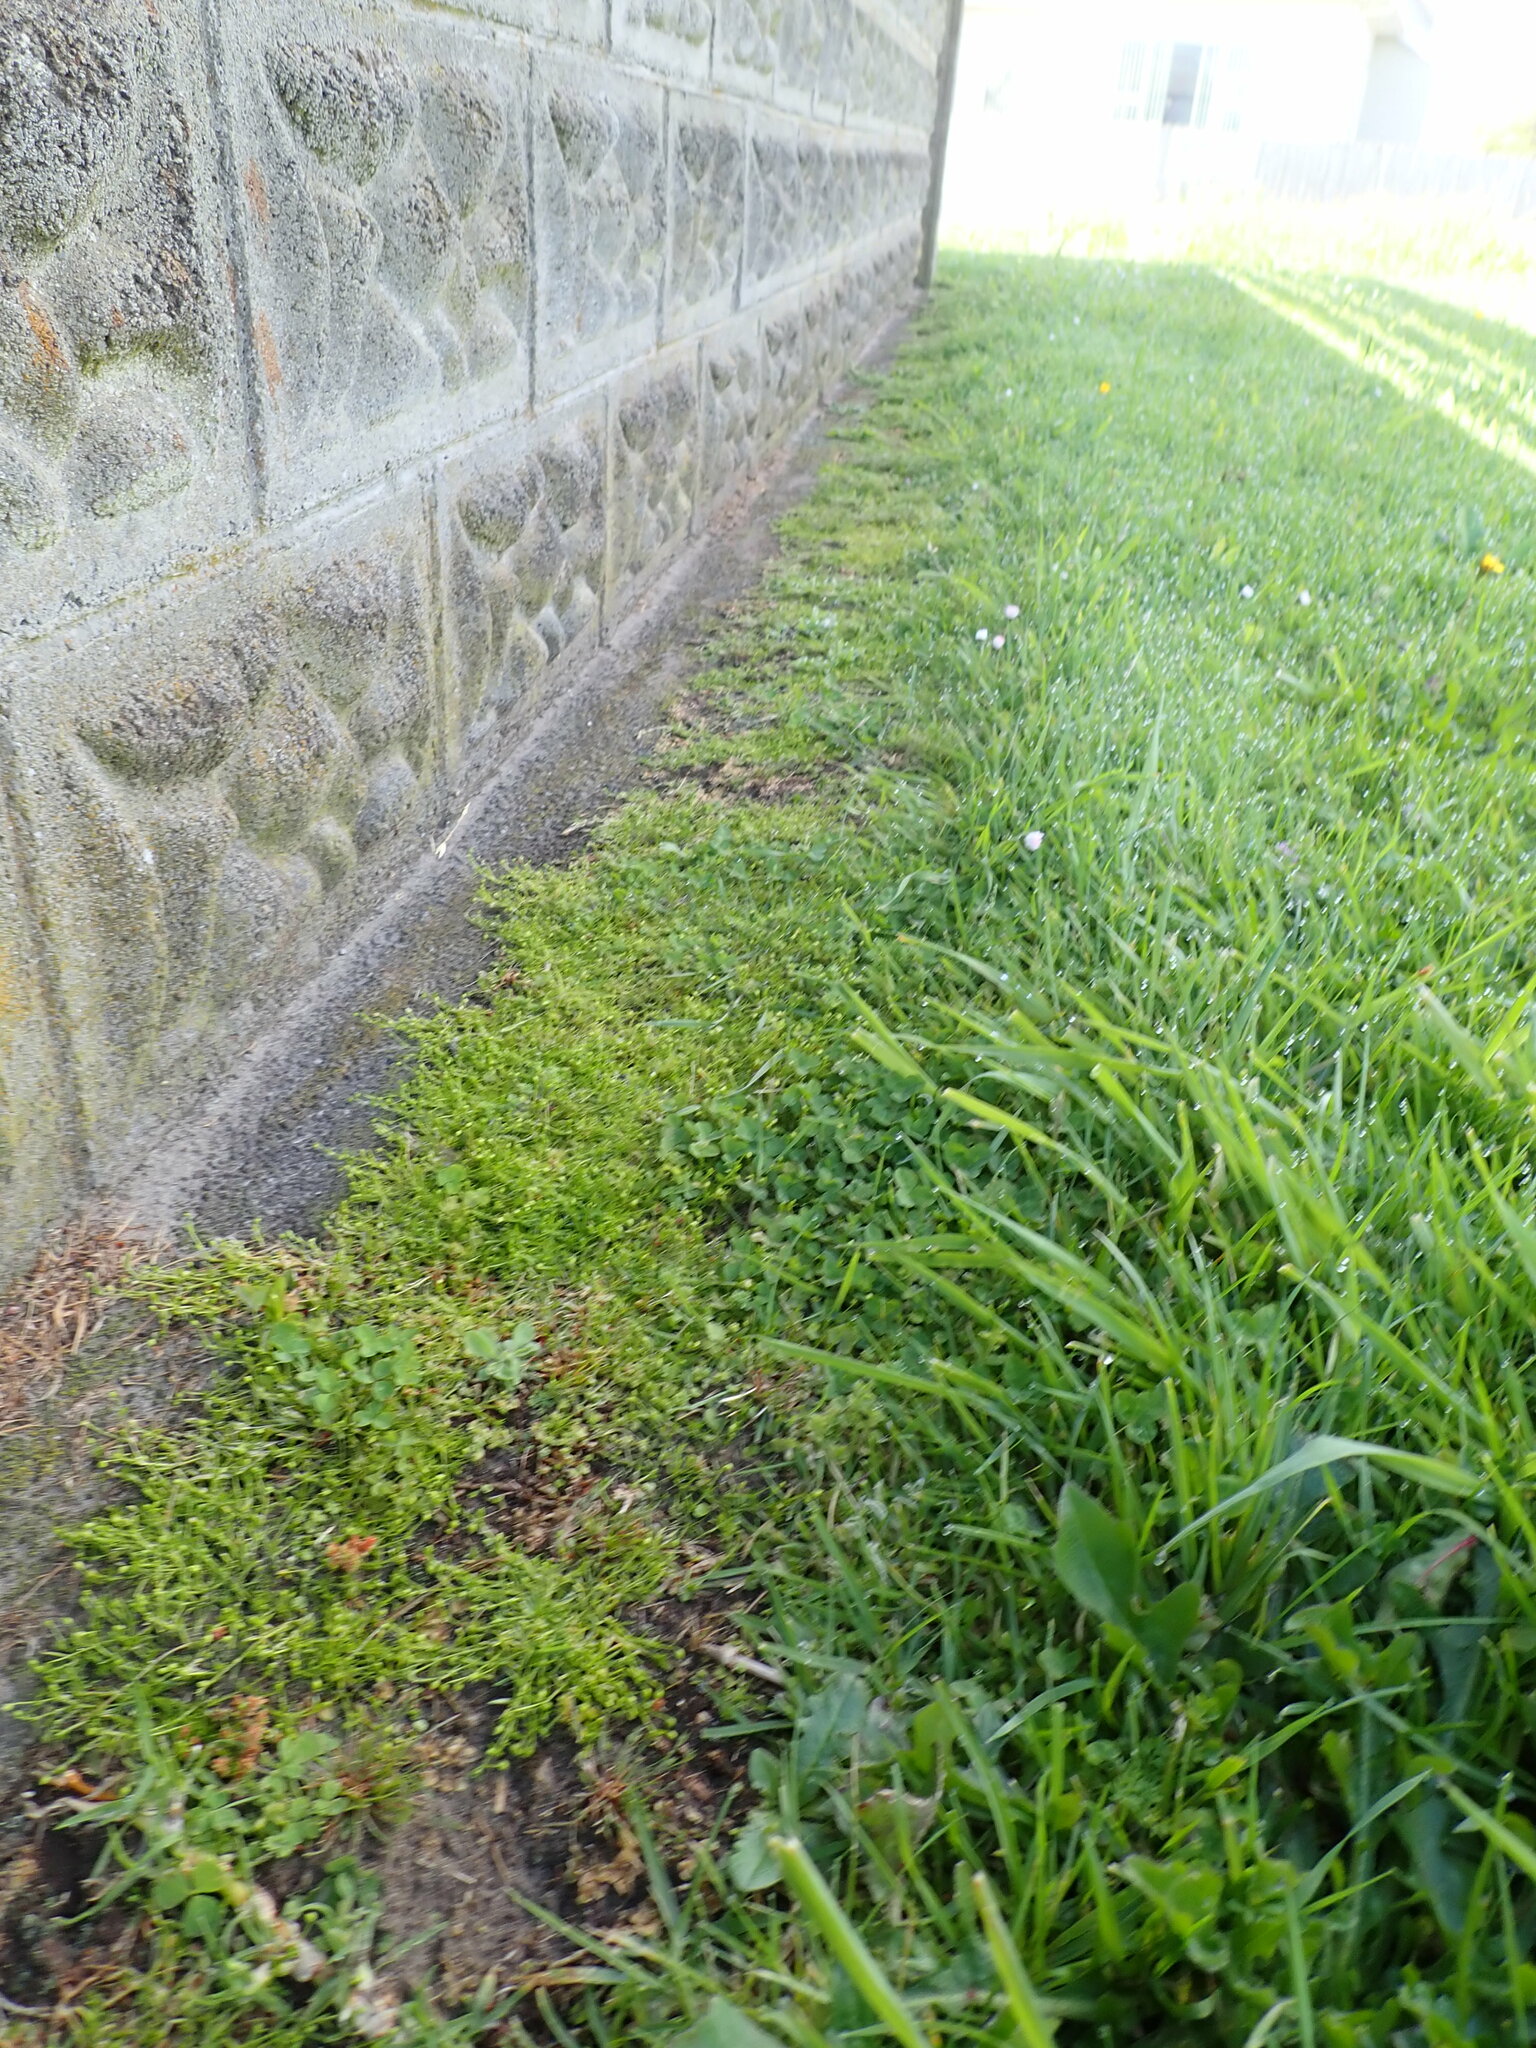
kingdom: Plantae
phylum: Tracheophyta
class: Magnoliopsida
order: Caryophyllales
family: Caryophyllaceae
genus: Sagina
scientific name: Sagina procumbens
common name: Procumbent pearlwort
